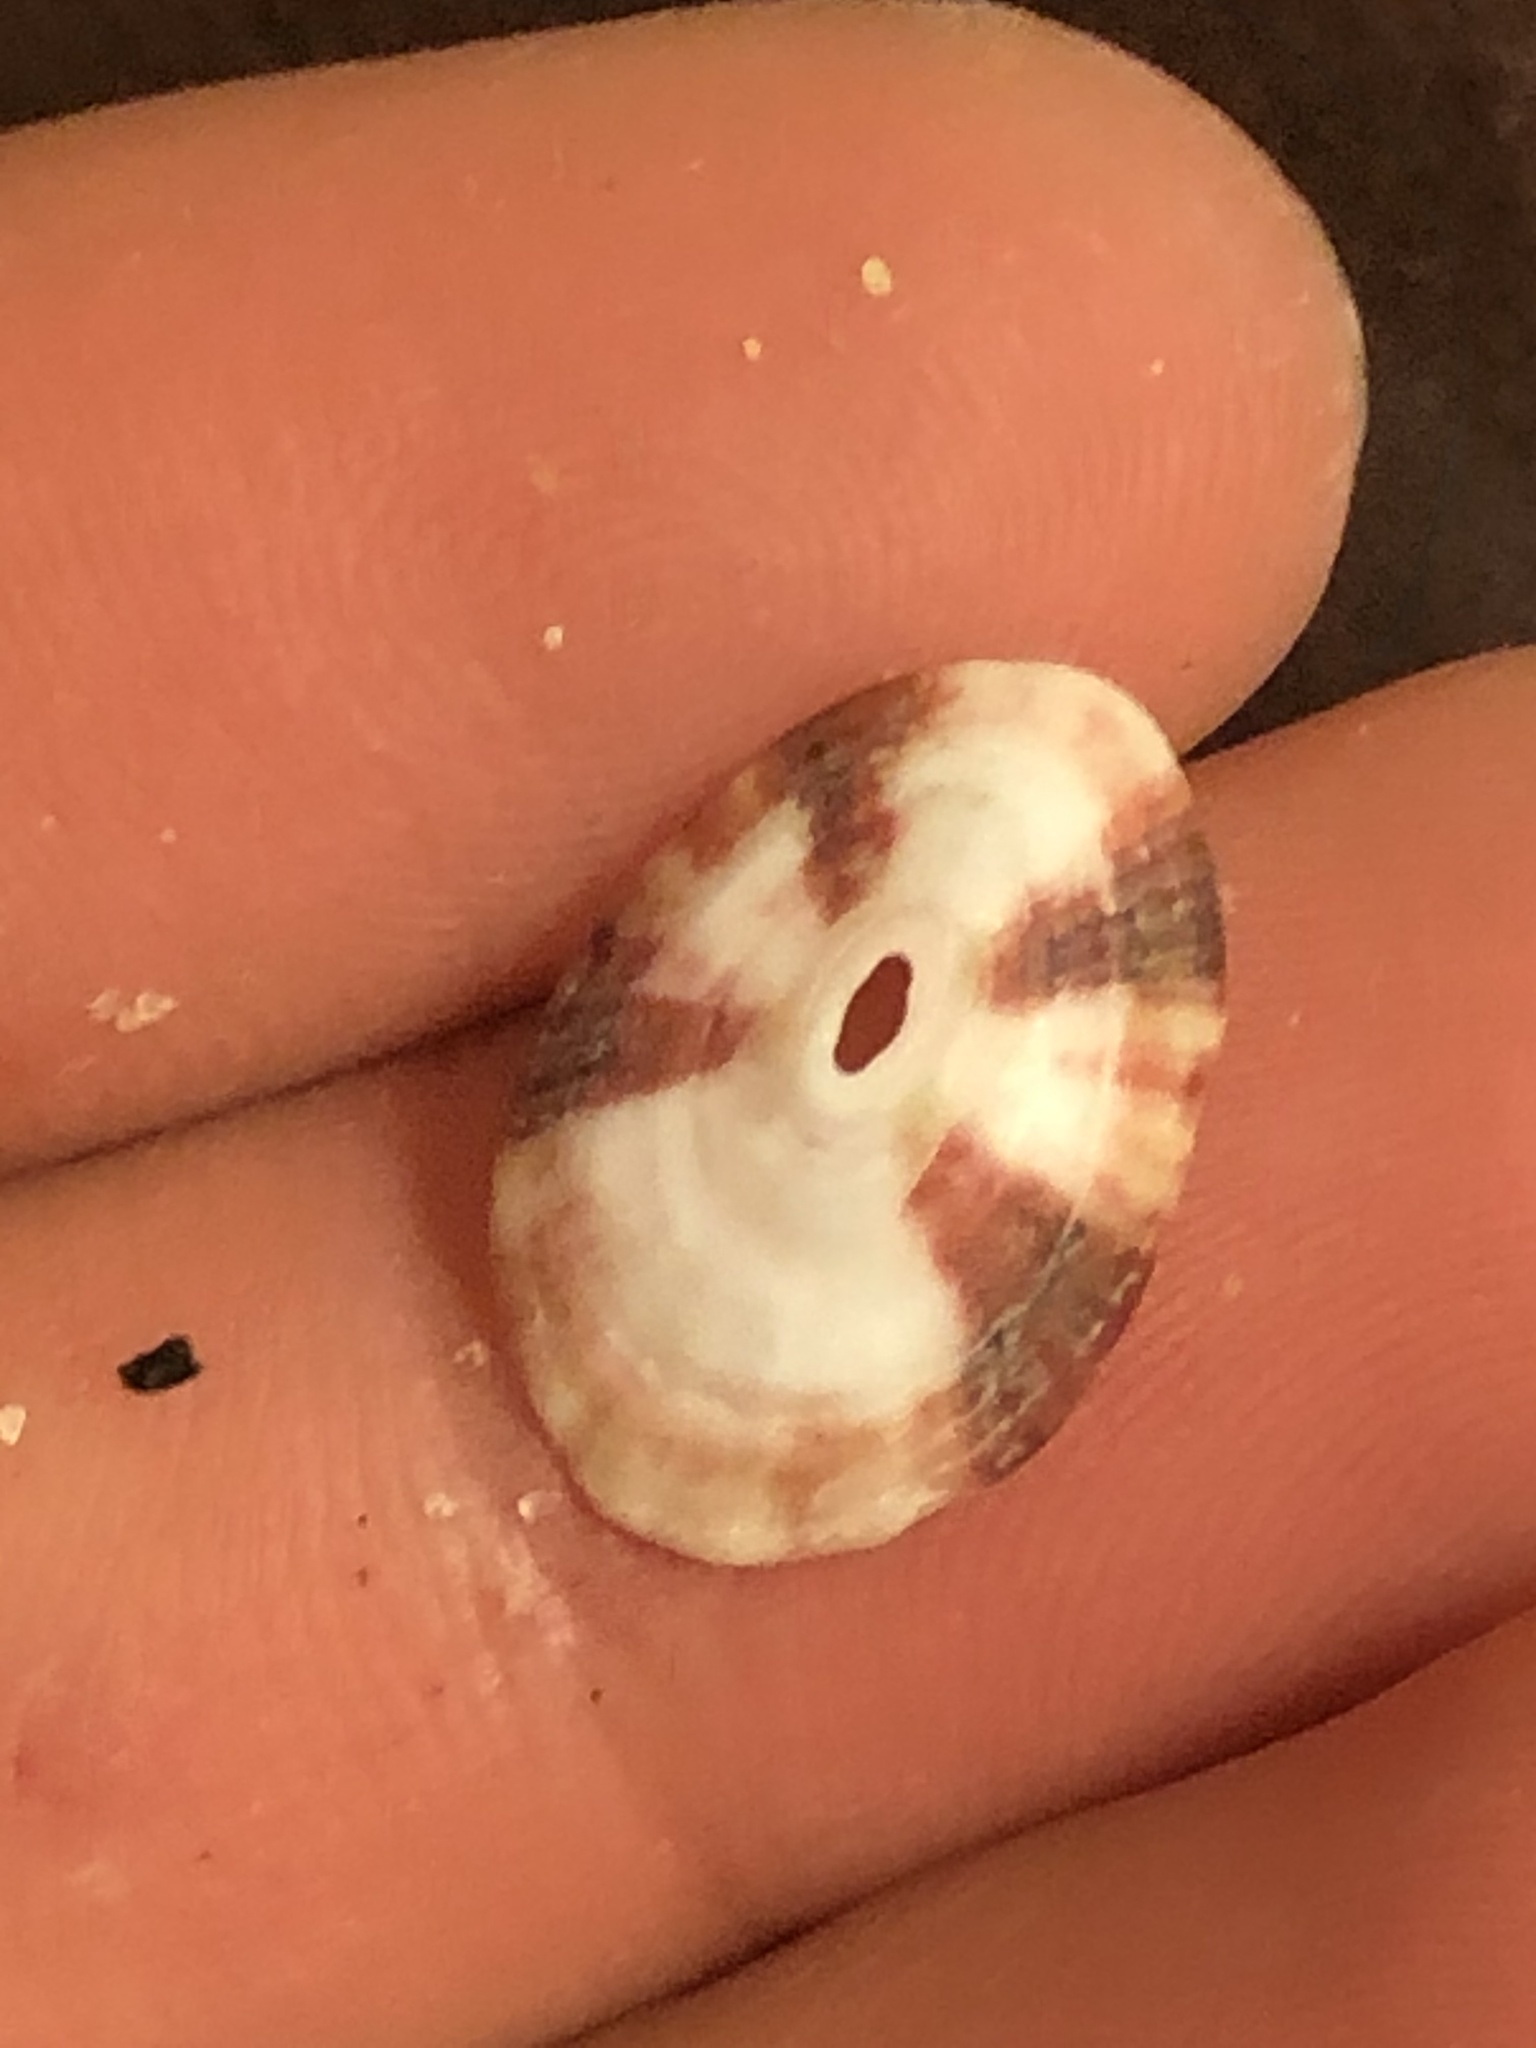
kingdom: Animalia
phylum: Mollusca
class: Gastropoda
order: Lepetellida
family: Fissurellidae
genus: Fissurella
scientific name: Fissurella volcano
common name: Volcano keyhole limpet
